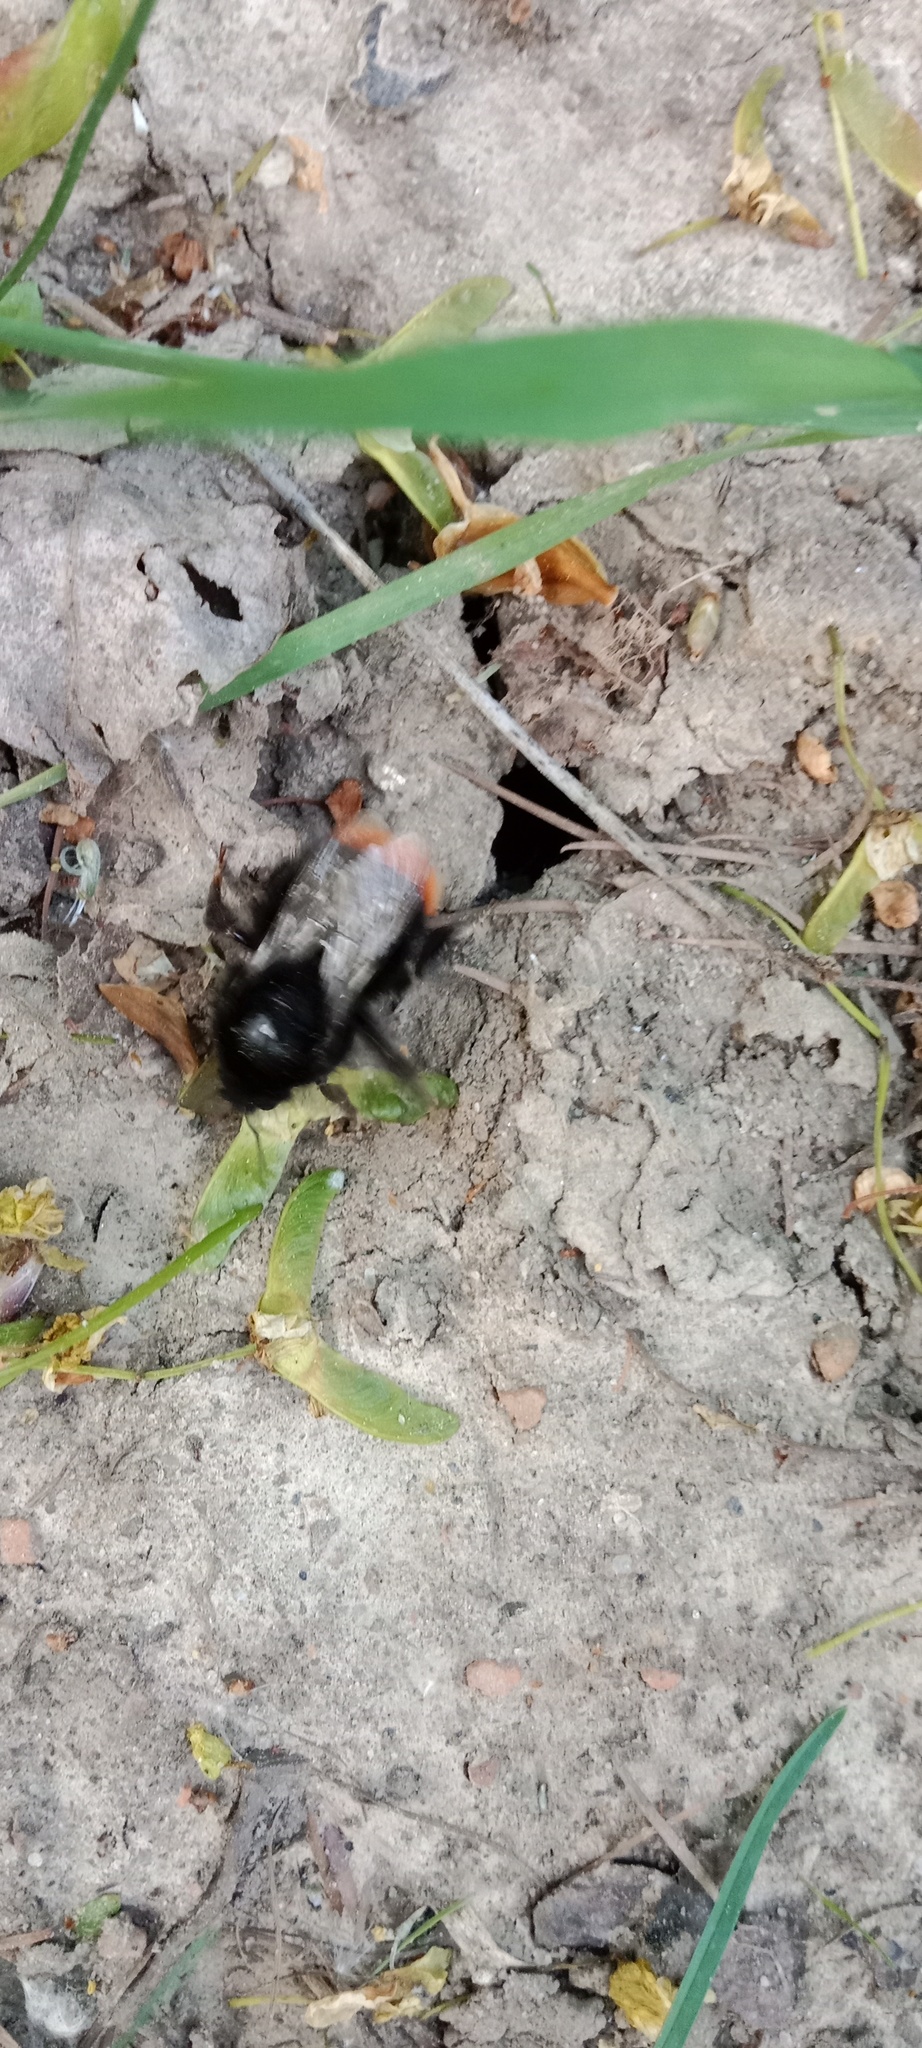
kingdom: Animalia
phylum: Arthropoda
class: Insecta
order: Hymenoptera
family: Apidae
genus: Bombus
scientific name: Bombus lapidarius
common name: Large red-tailed humble-bee
